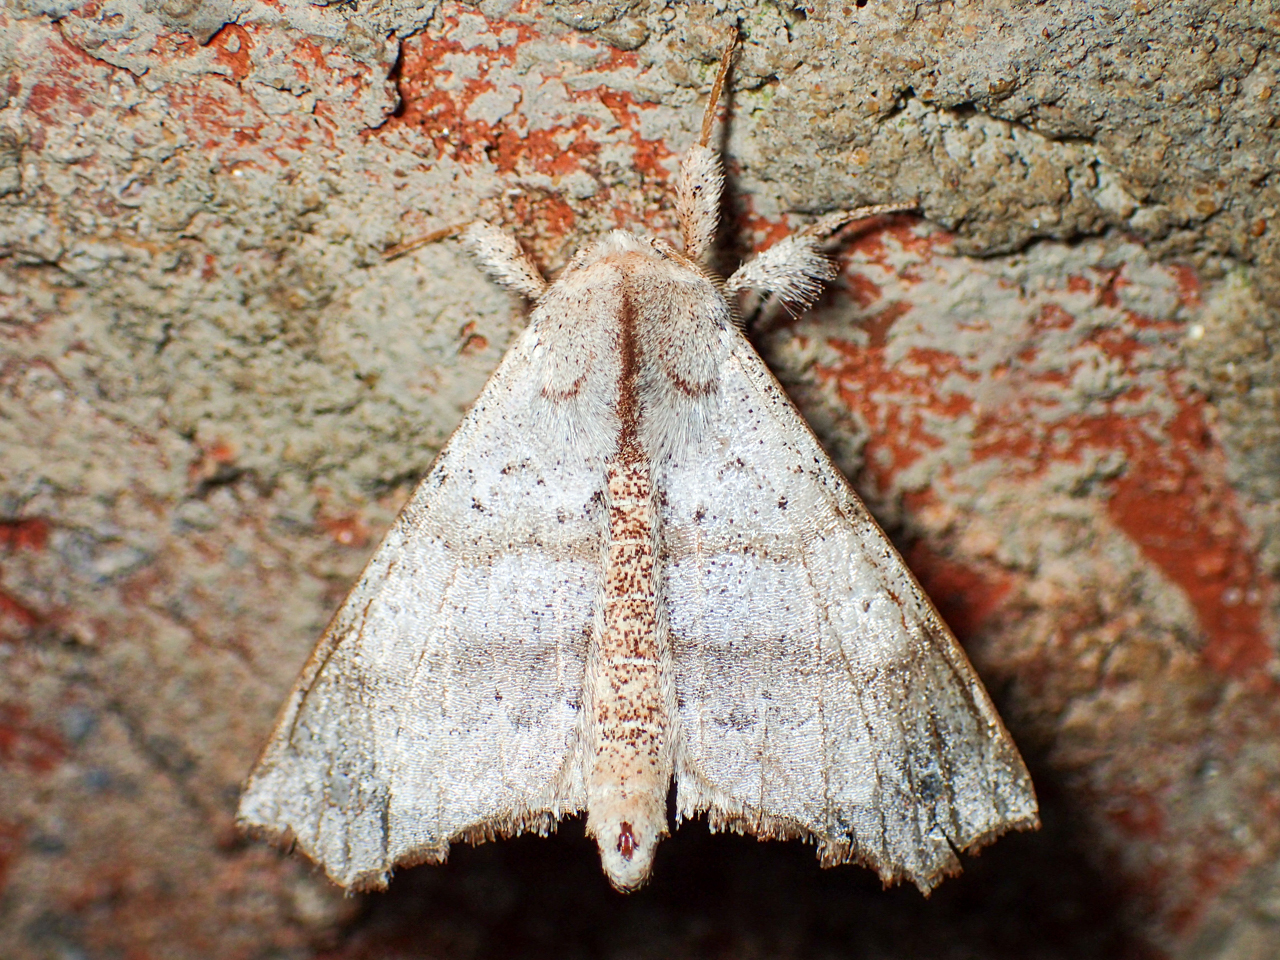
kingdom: Animalia
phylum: Arthropoda
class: Insecta
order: Lepidoptera
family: Apatelodidae
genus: Olceclostera
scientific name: Olceclostera angelica
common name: Angel moth
